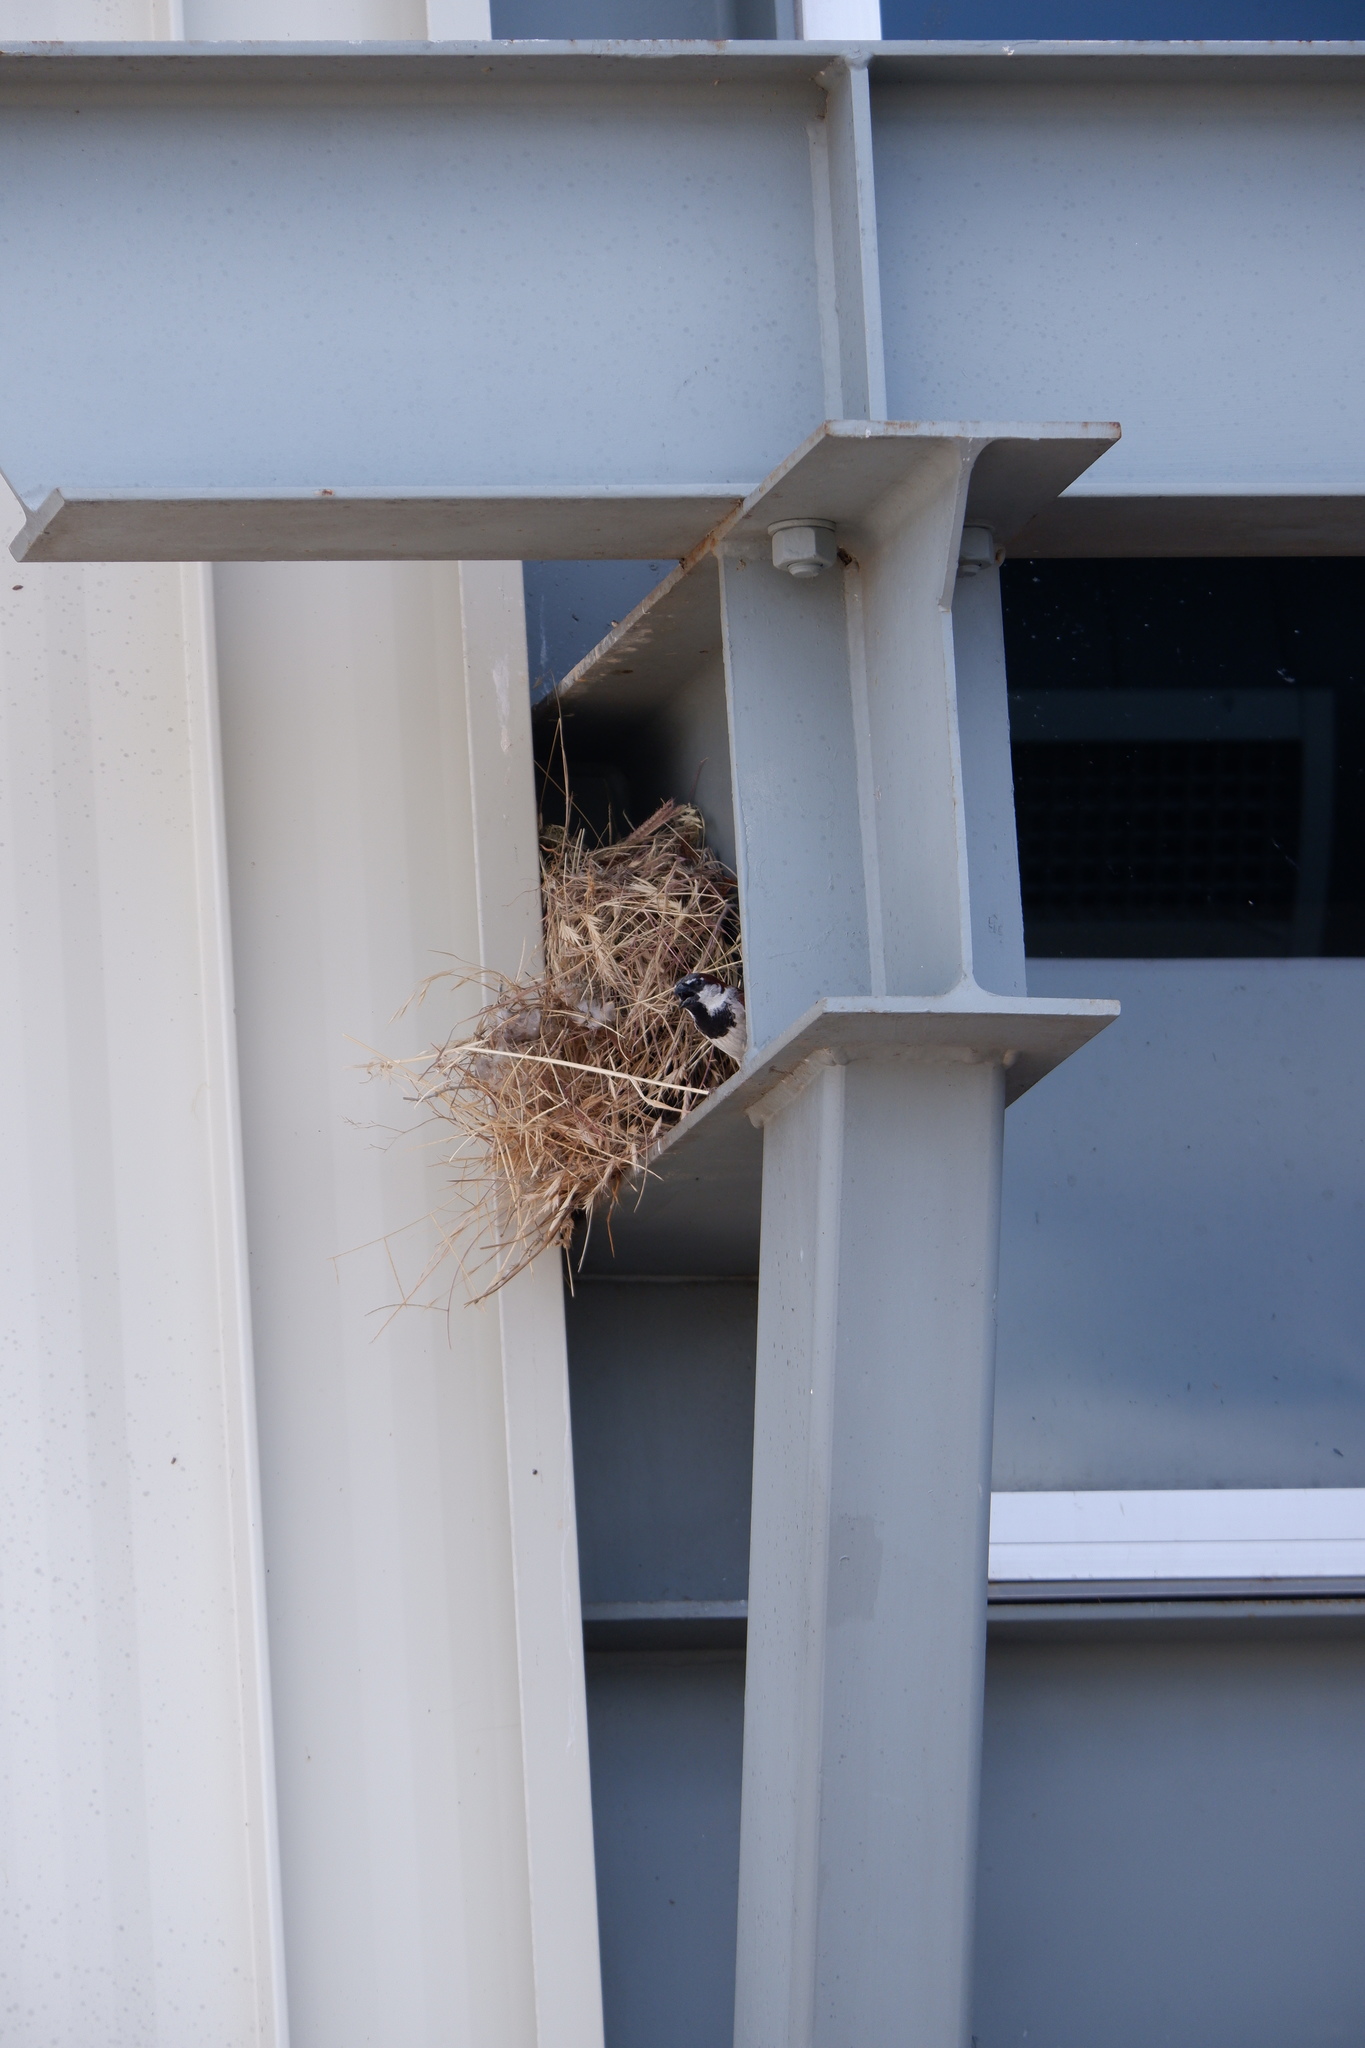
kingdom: Animalia
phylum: Chordata
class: Aves
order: Passeriformes
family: Passeridae
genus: Passer
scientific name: Passer domesticus
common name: House sparrow
